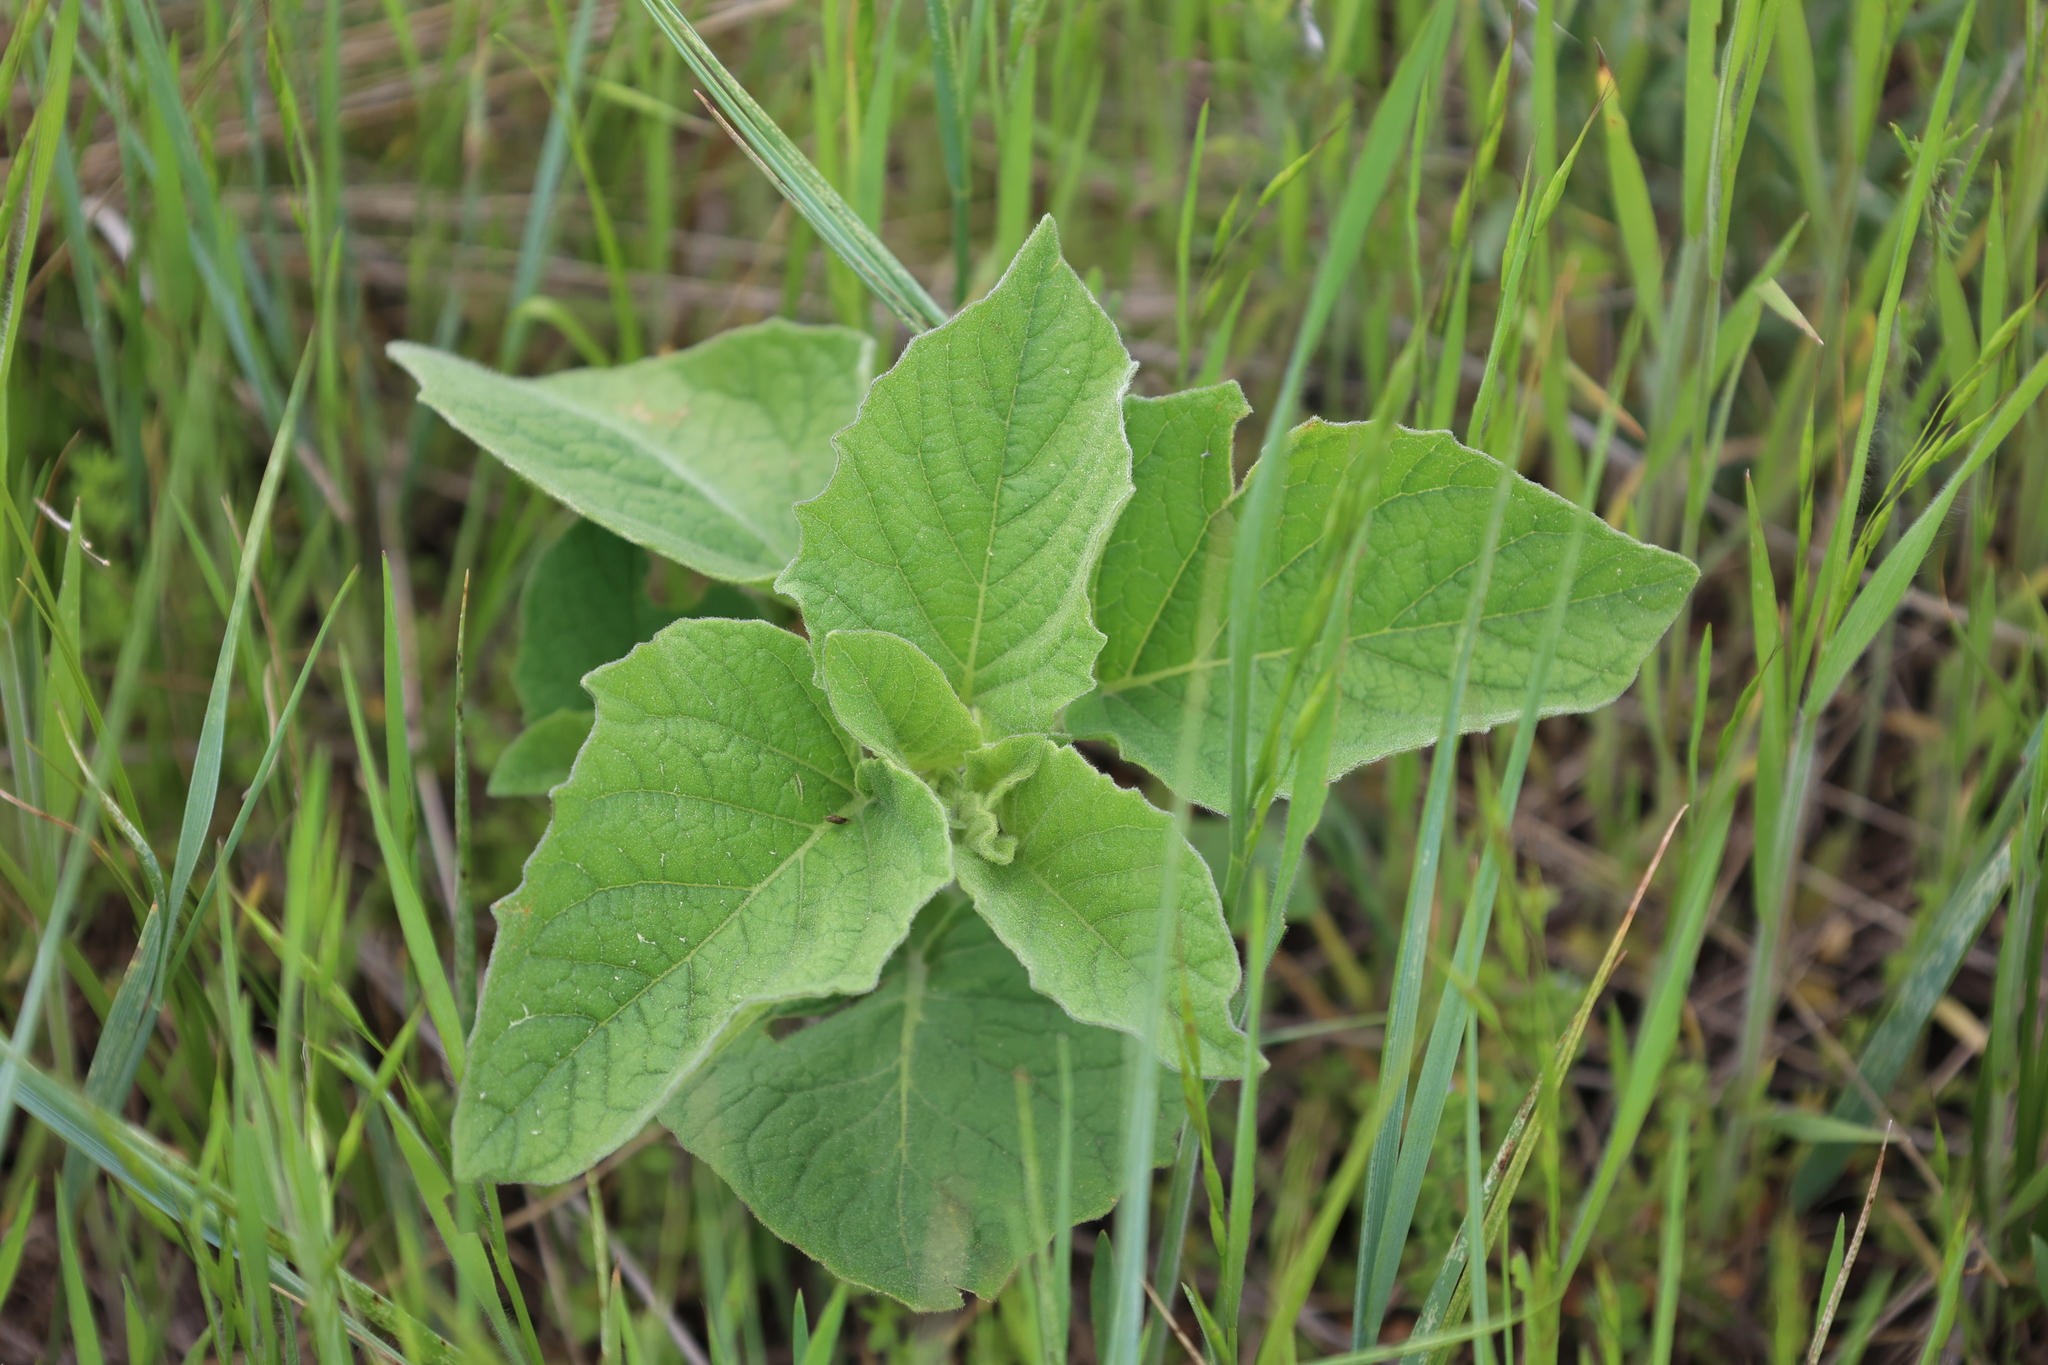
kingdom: Plantae
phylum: Tracheophyta
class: Magnoliopsida
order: Solanales
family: Solanaceae
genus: Physalis
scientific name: Physalis heterophylla
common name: Clammy ground-cherry
